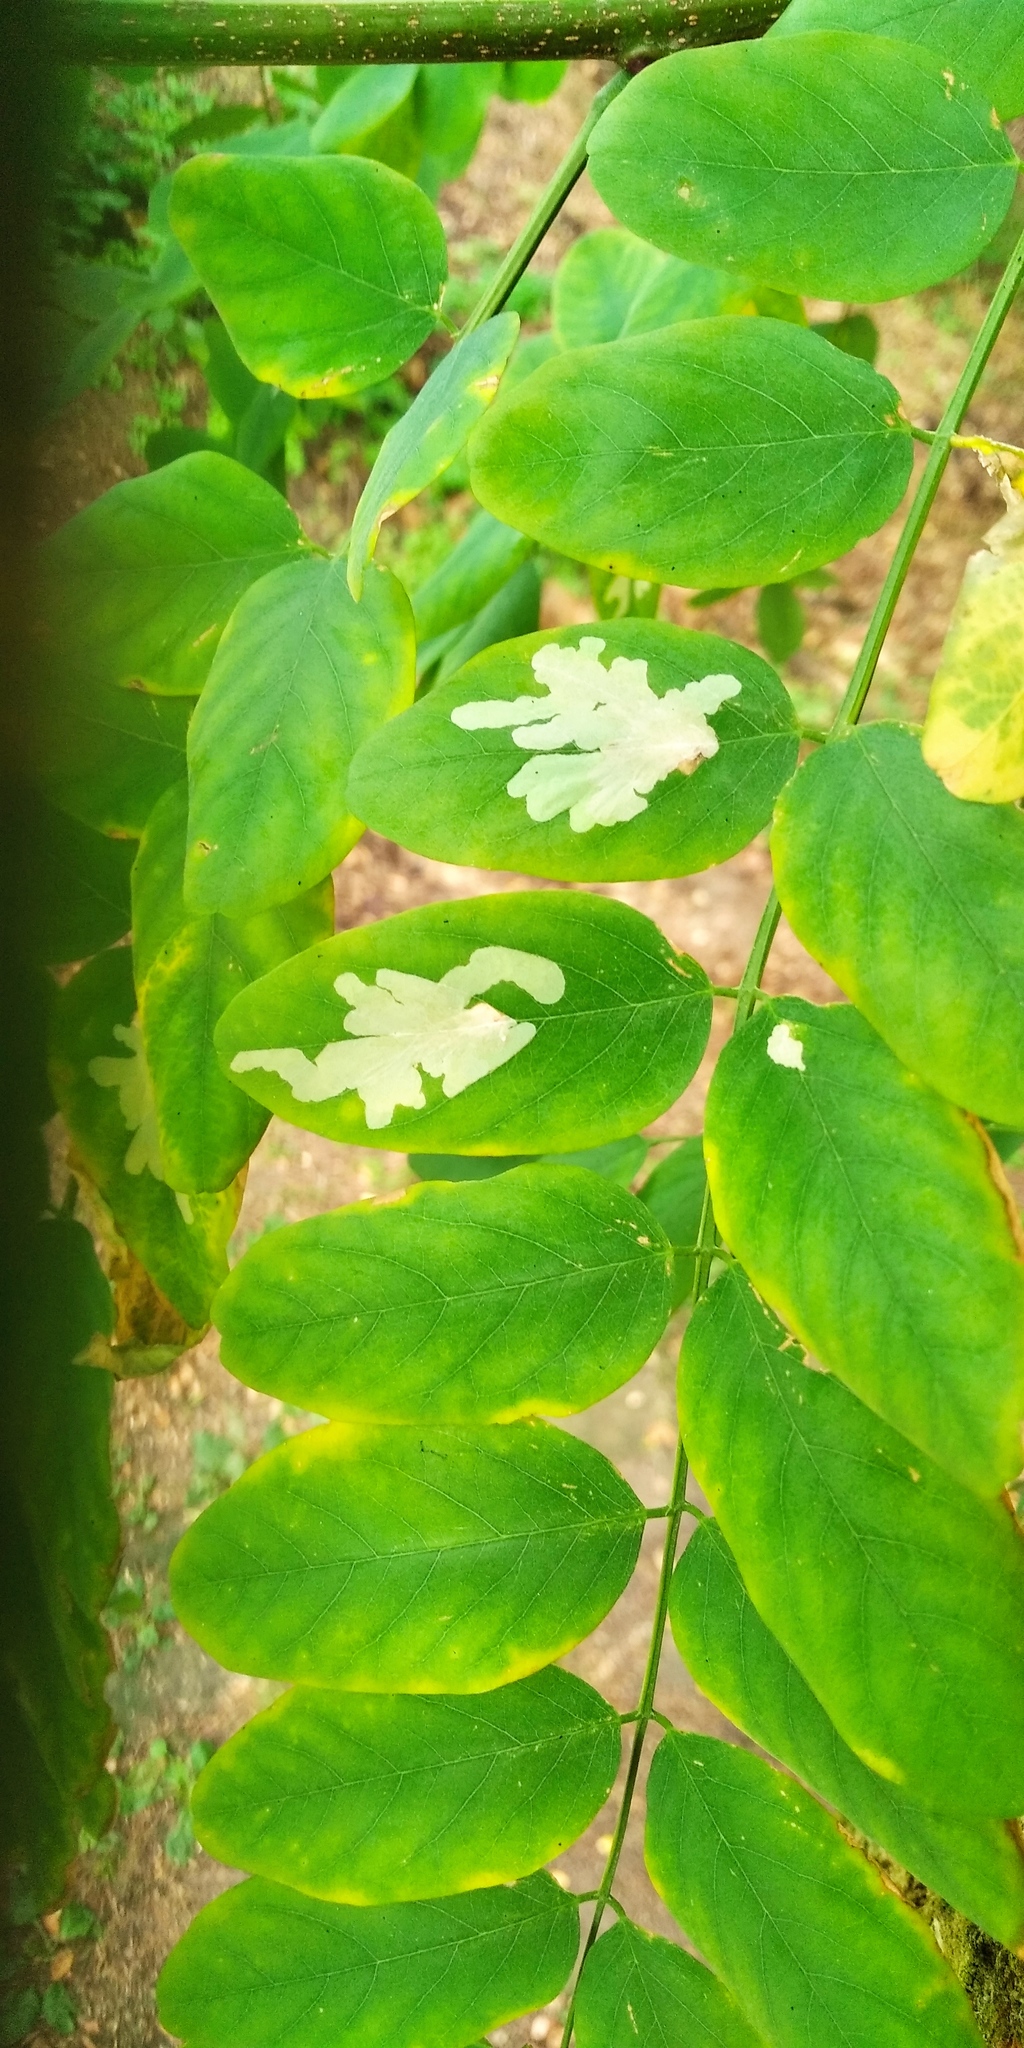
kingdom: Animalia
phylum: Arthropoda
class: Insecta
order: Lepidoptera
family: Gracillariidae
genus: Parectopa
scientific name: Parectopa robiniella
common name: Locust digitate leafminer
